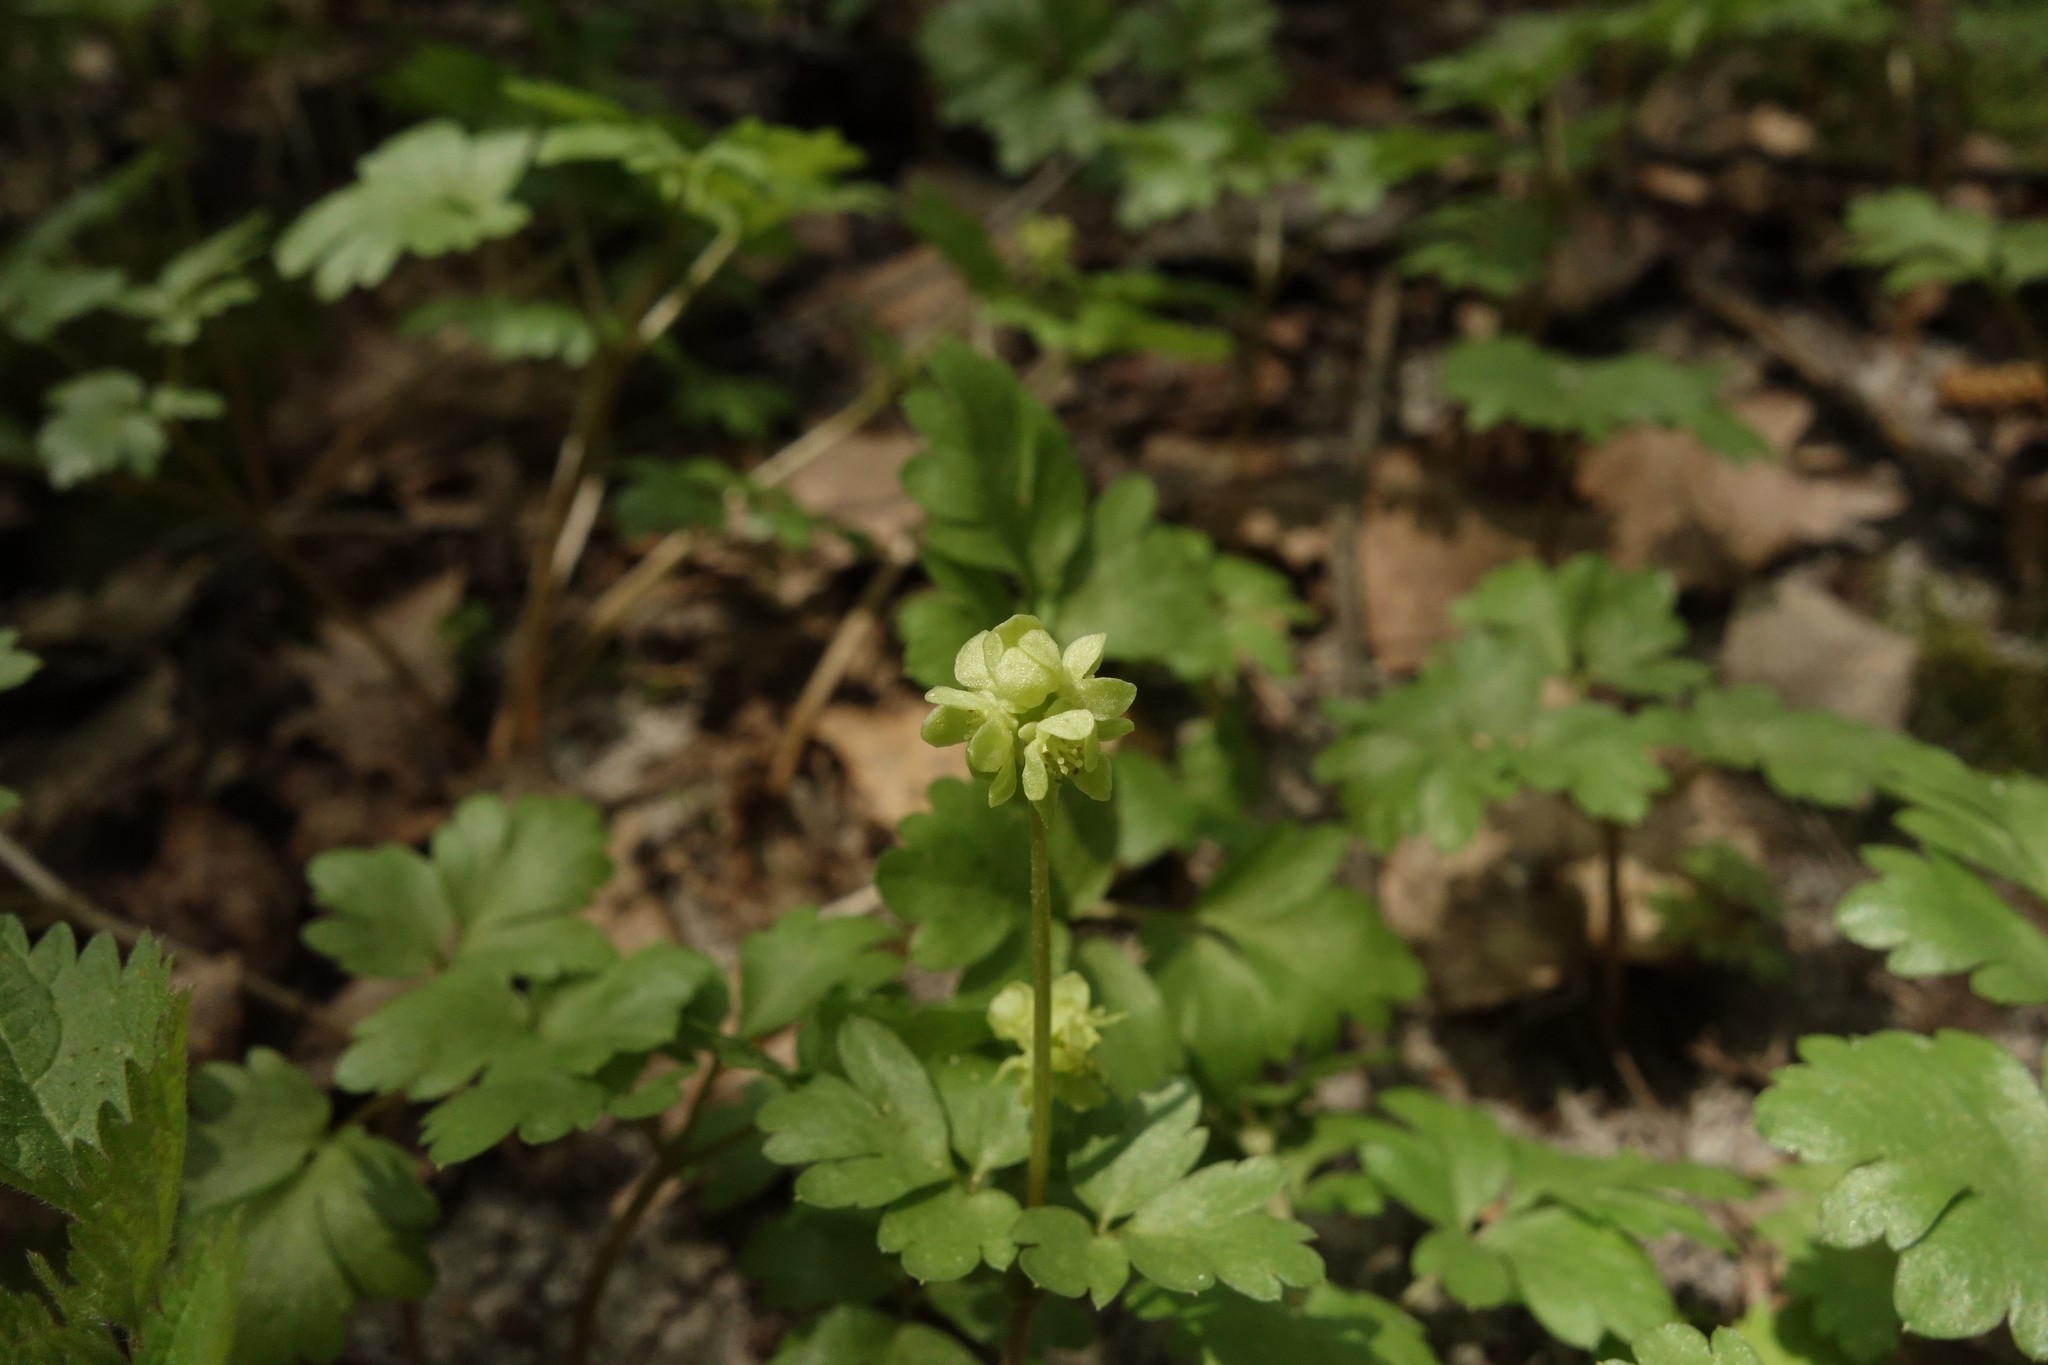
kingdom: Plantae
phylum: Tracheophyta
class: Magnoliopsida
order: Dipsacales
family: Viburnaceae
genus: Adoxa
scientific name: Adoxa moschatellina
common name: Moschatel
